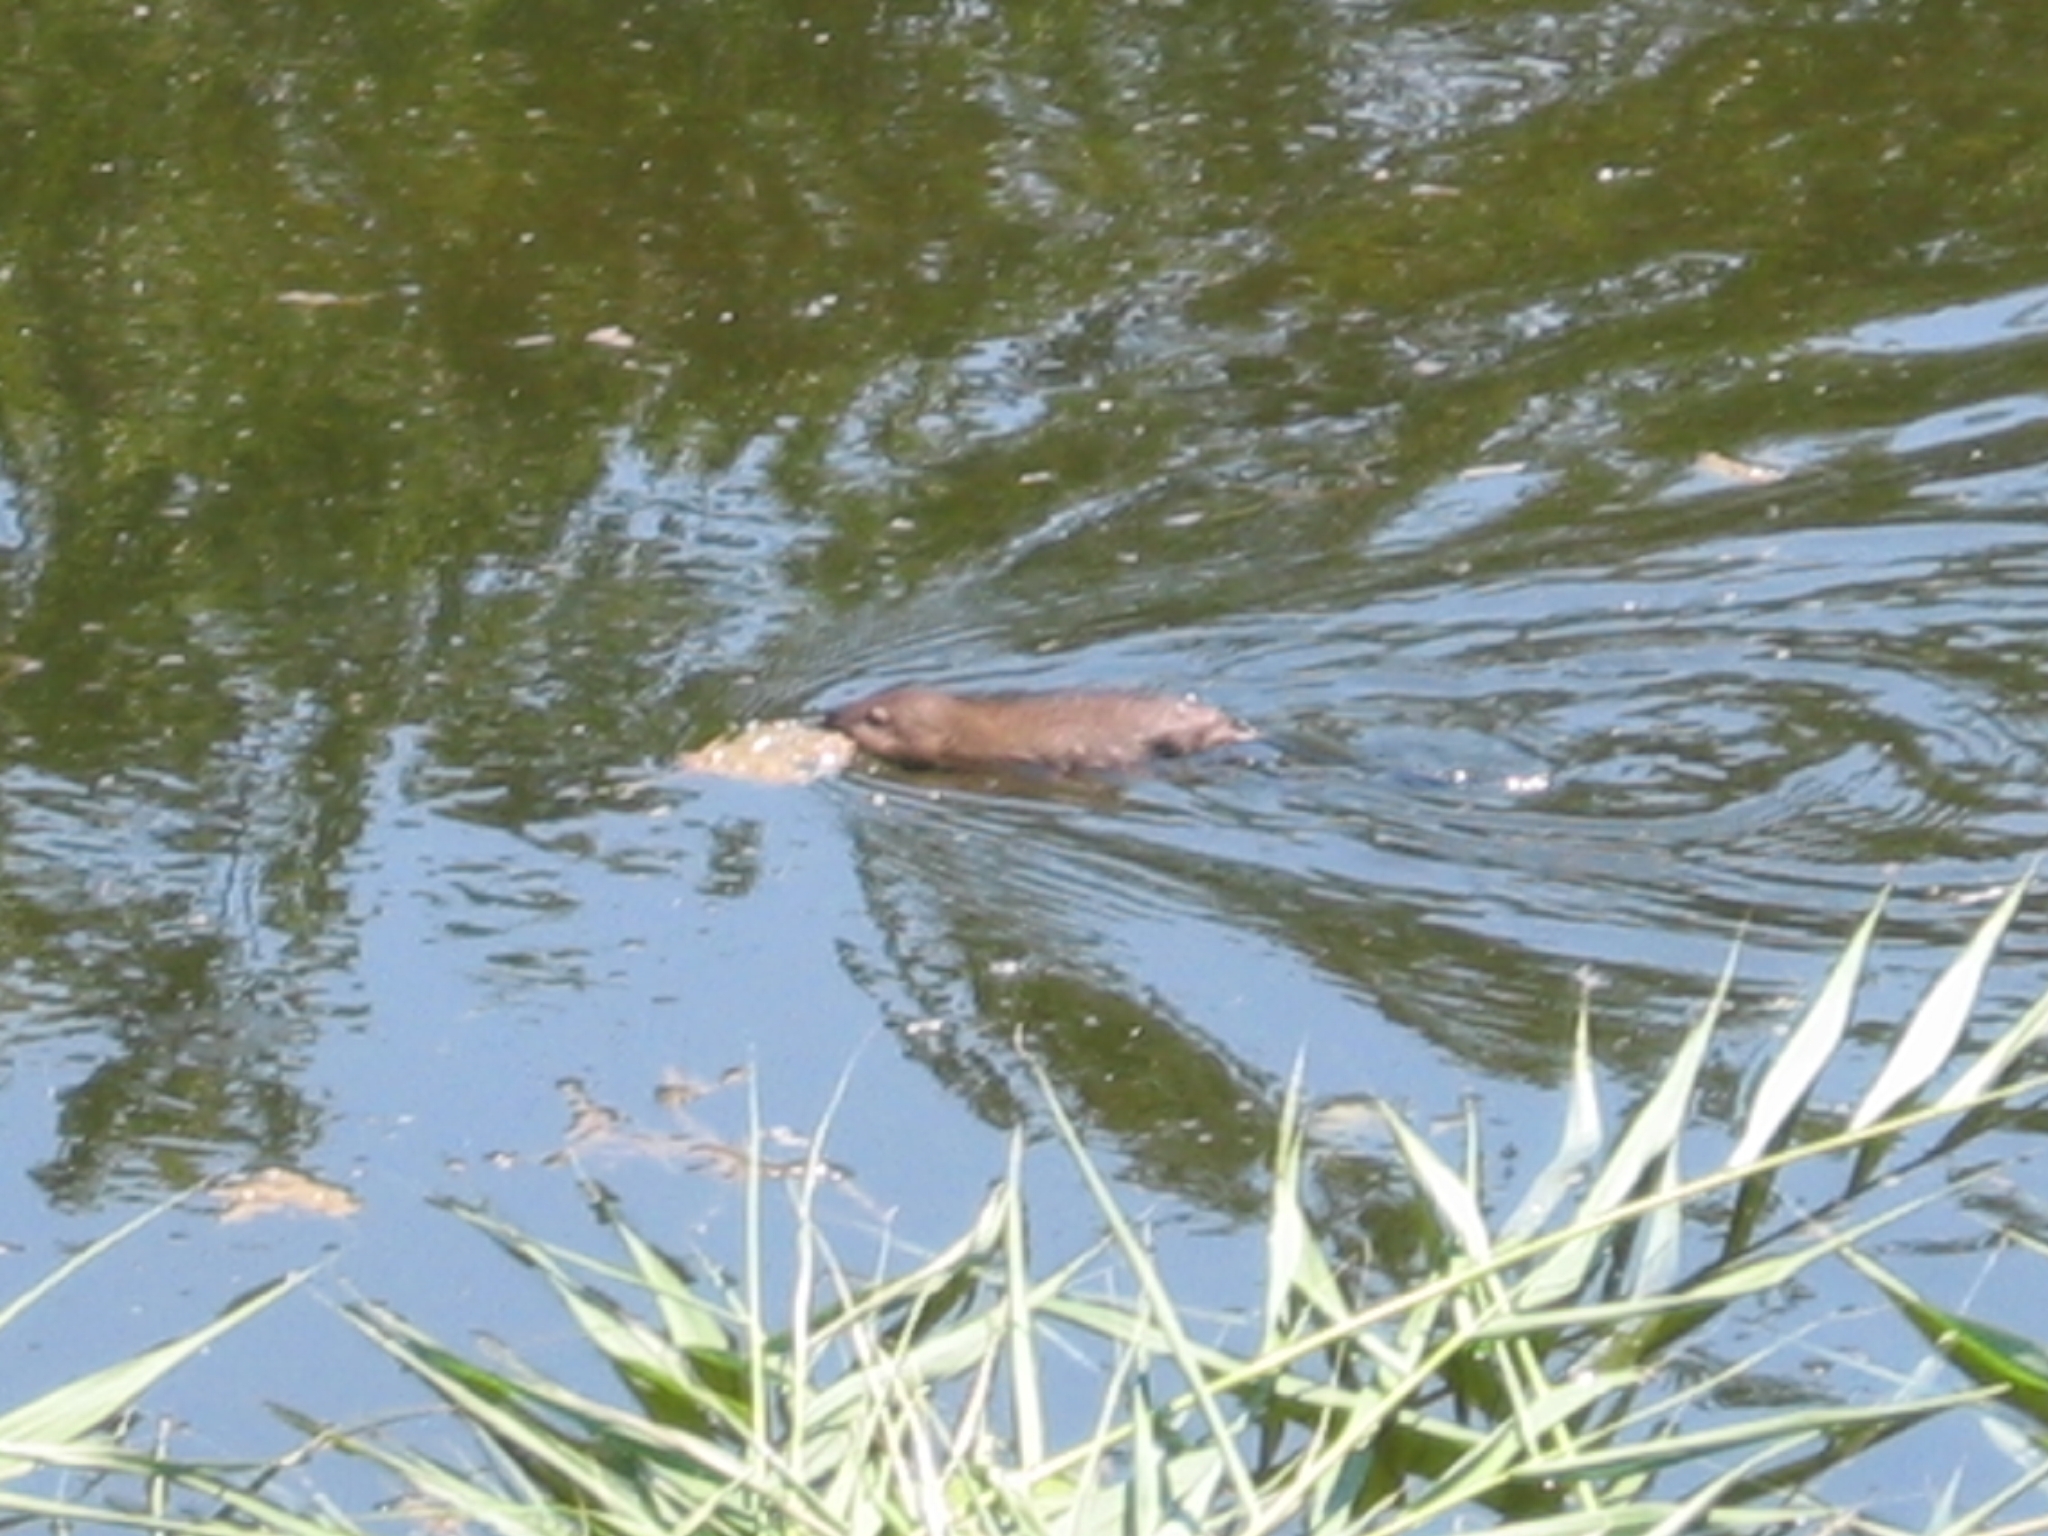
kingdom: Animalia
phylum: Chordata
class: Mammalia
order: Rodentia
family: Cricetidae
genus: Ondatra
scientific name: Ondatra zibethicus
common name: Muskrat
